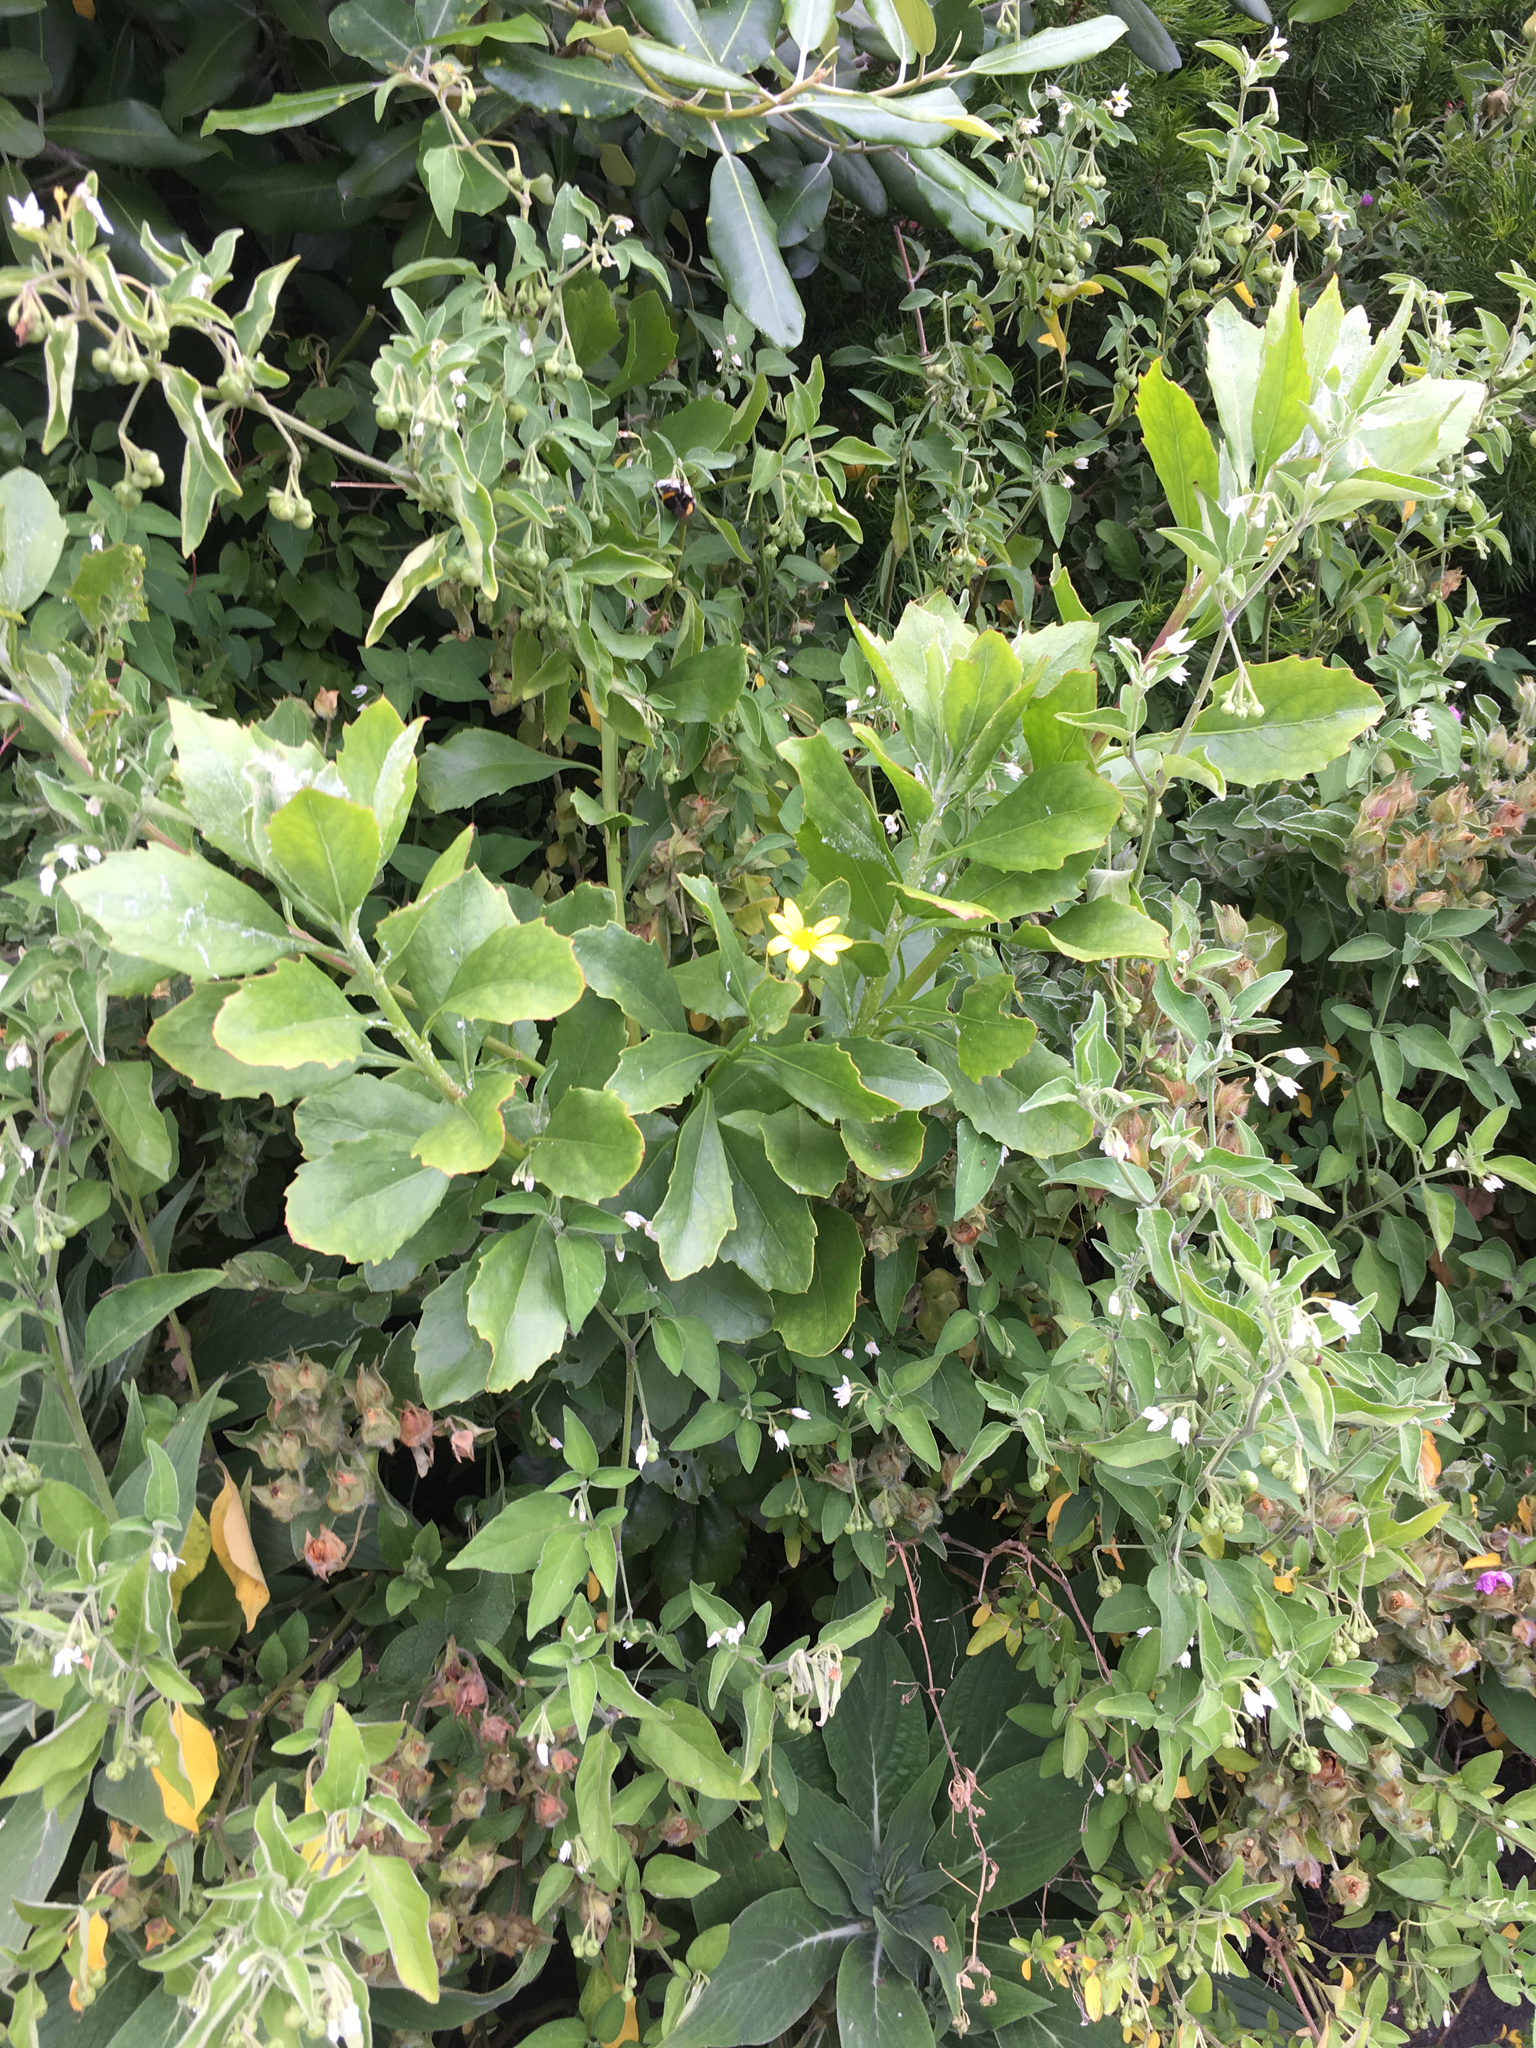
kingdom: Plantae
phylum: Tracheophyta
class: Magnoliopsida
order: Asterales
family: Asteraceae
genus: Osteospermum
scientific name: Osteospermum moniliferum
